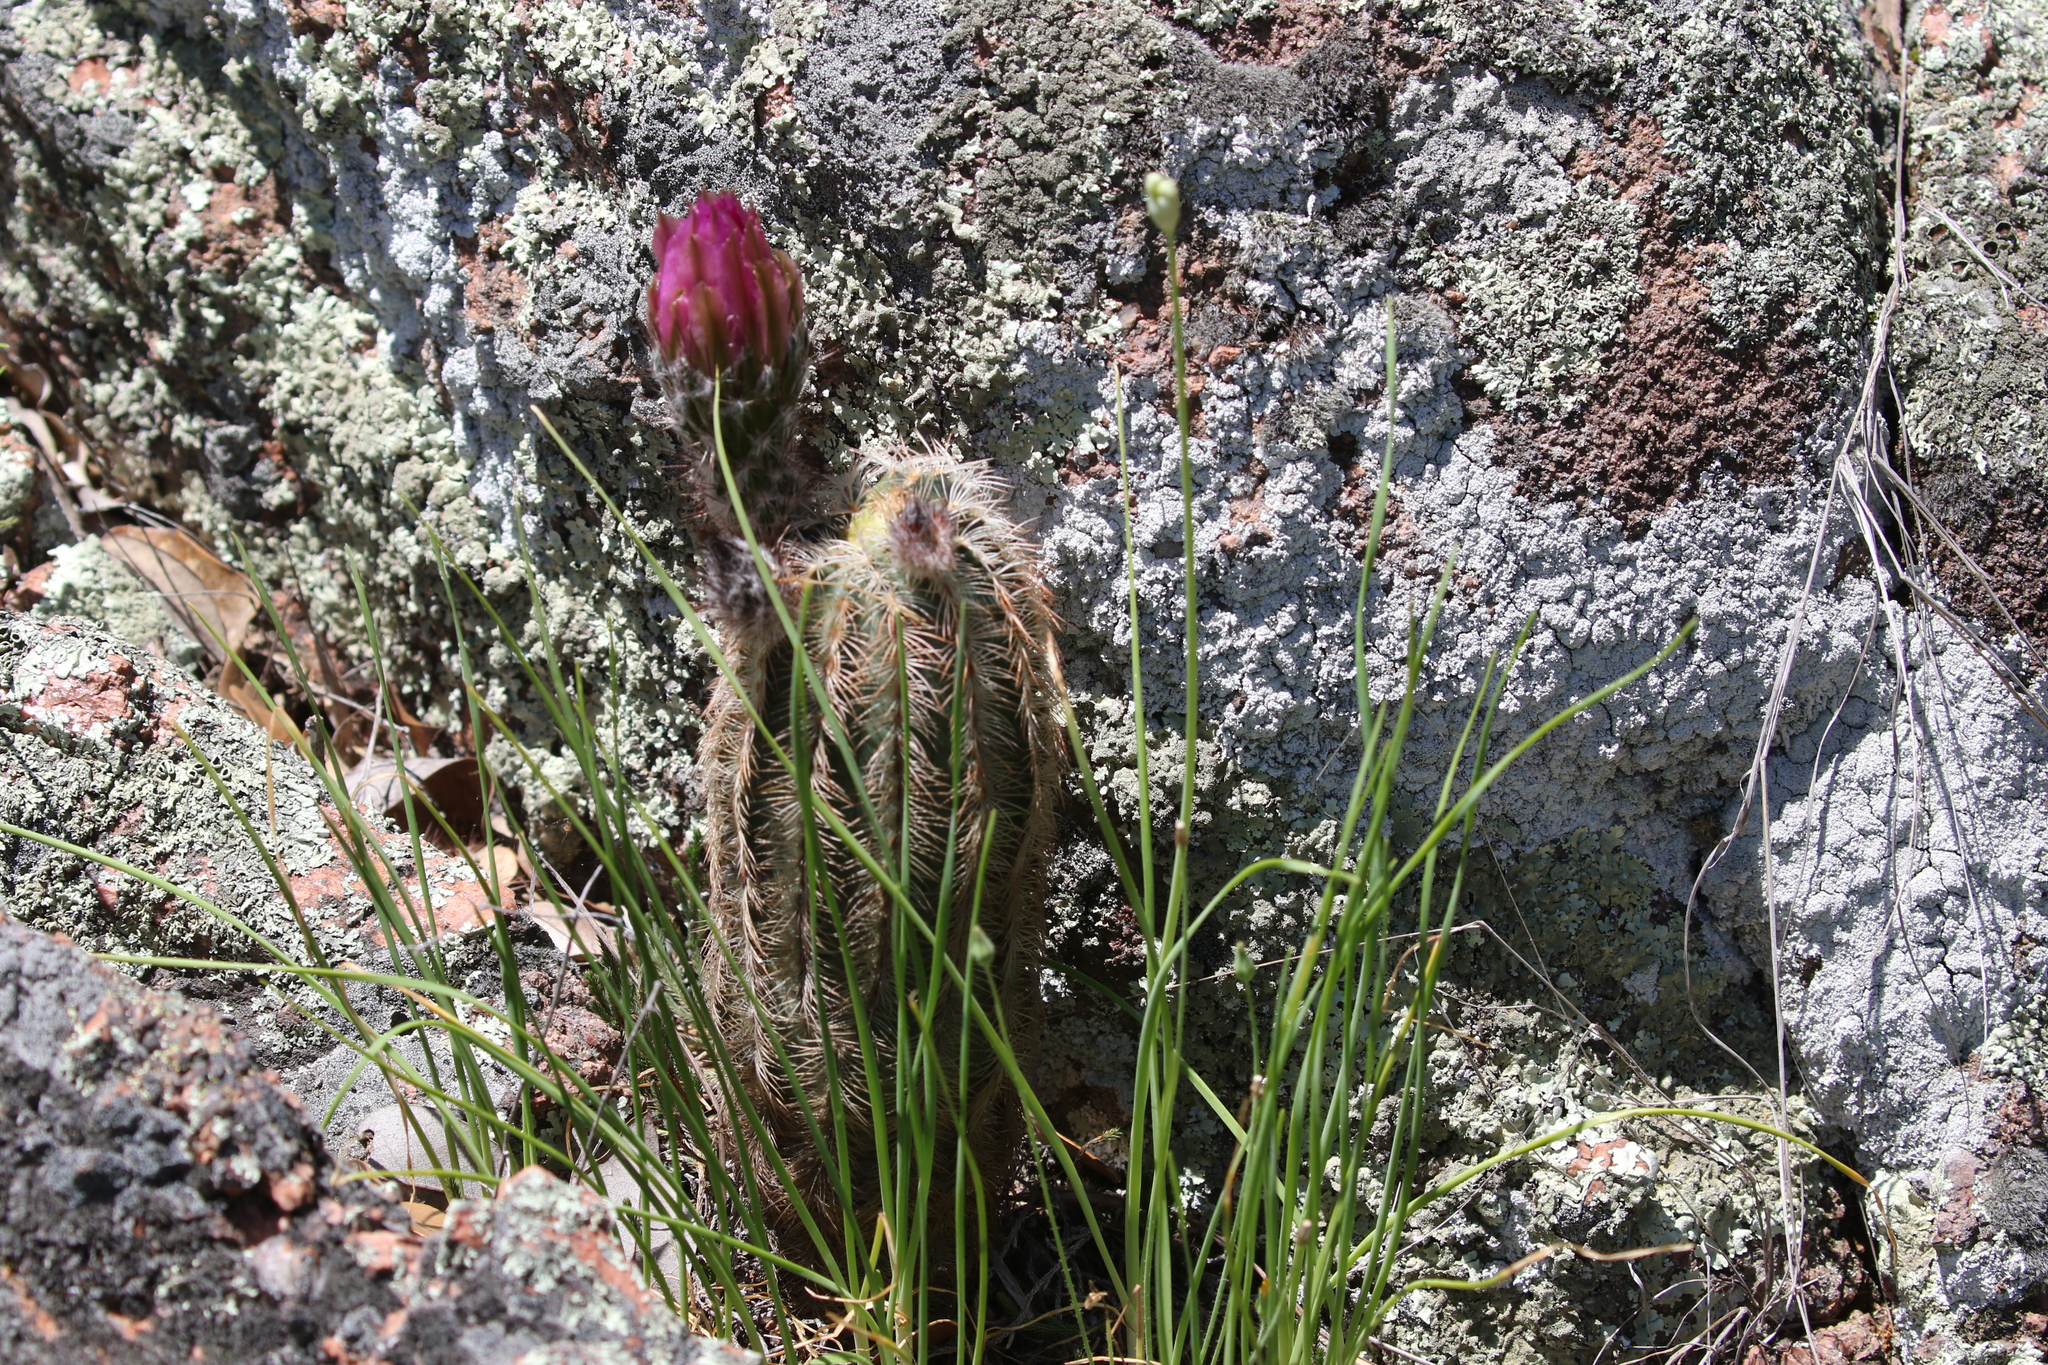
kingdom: Plantae
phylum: Tracheophyta
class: Magnoliopsida
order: Caryophyllales
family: Cactaceae
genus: Echinocereus
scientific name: Echinocereus reichenbachii
